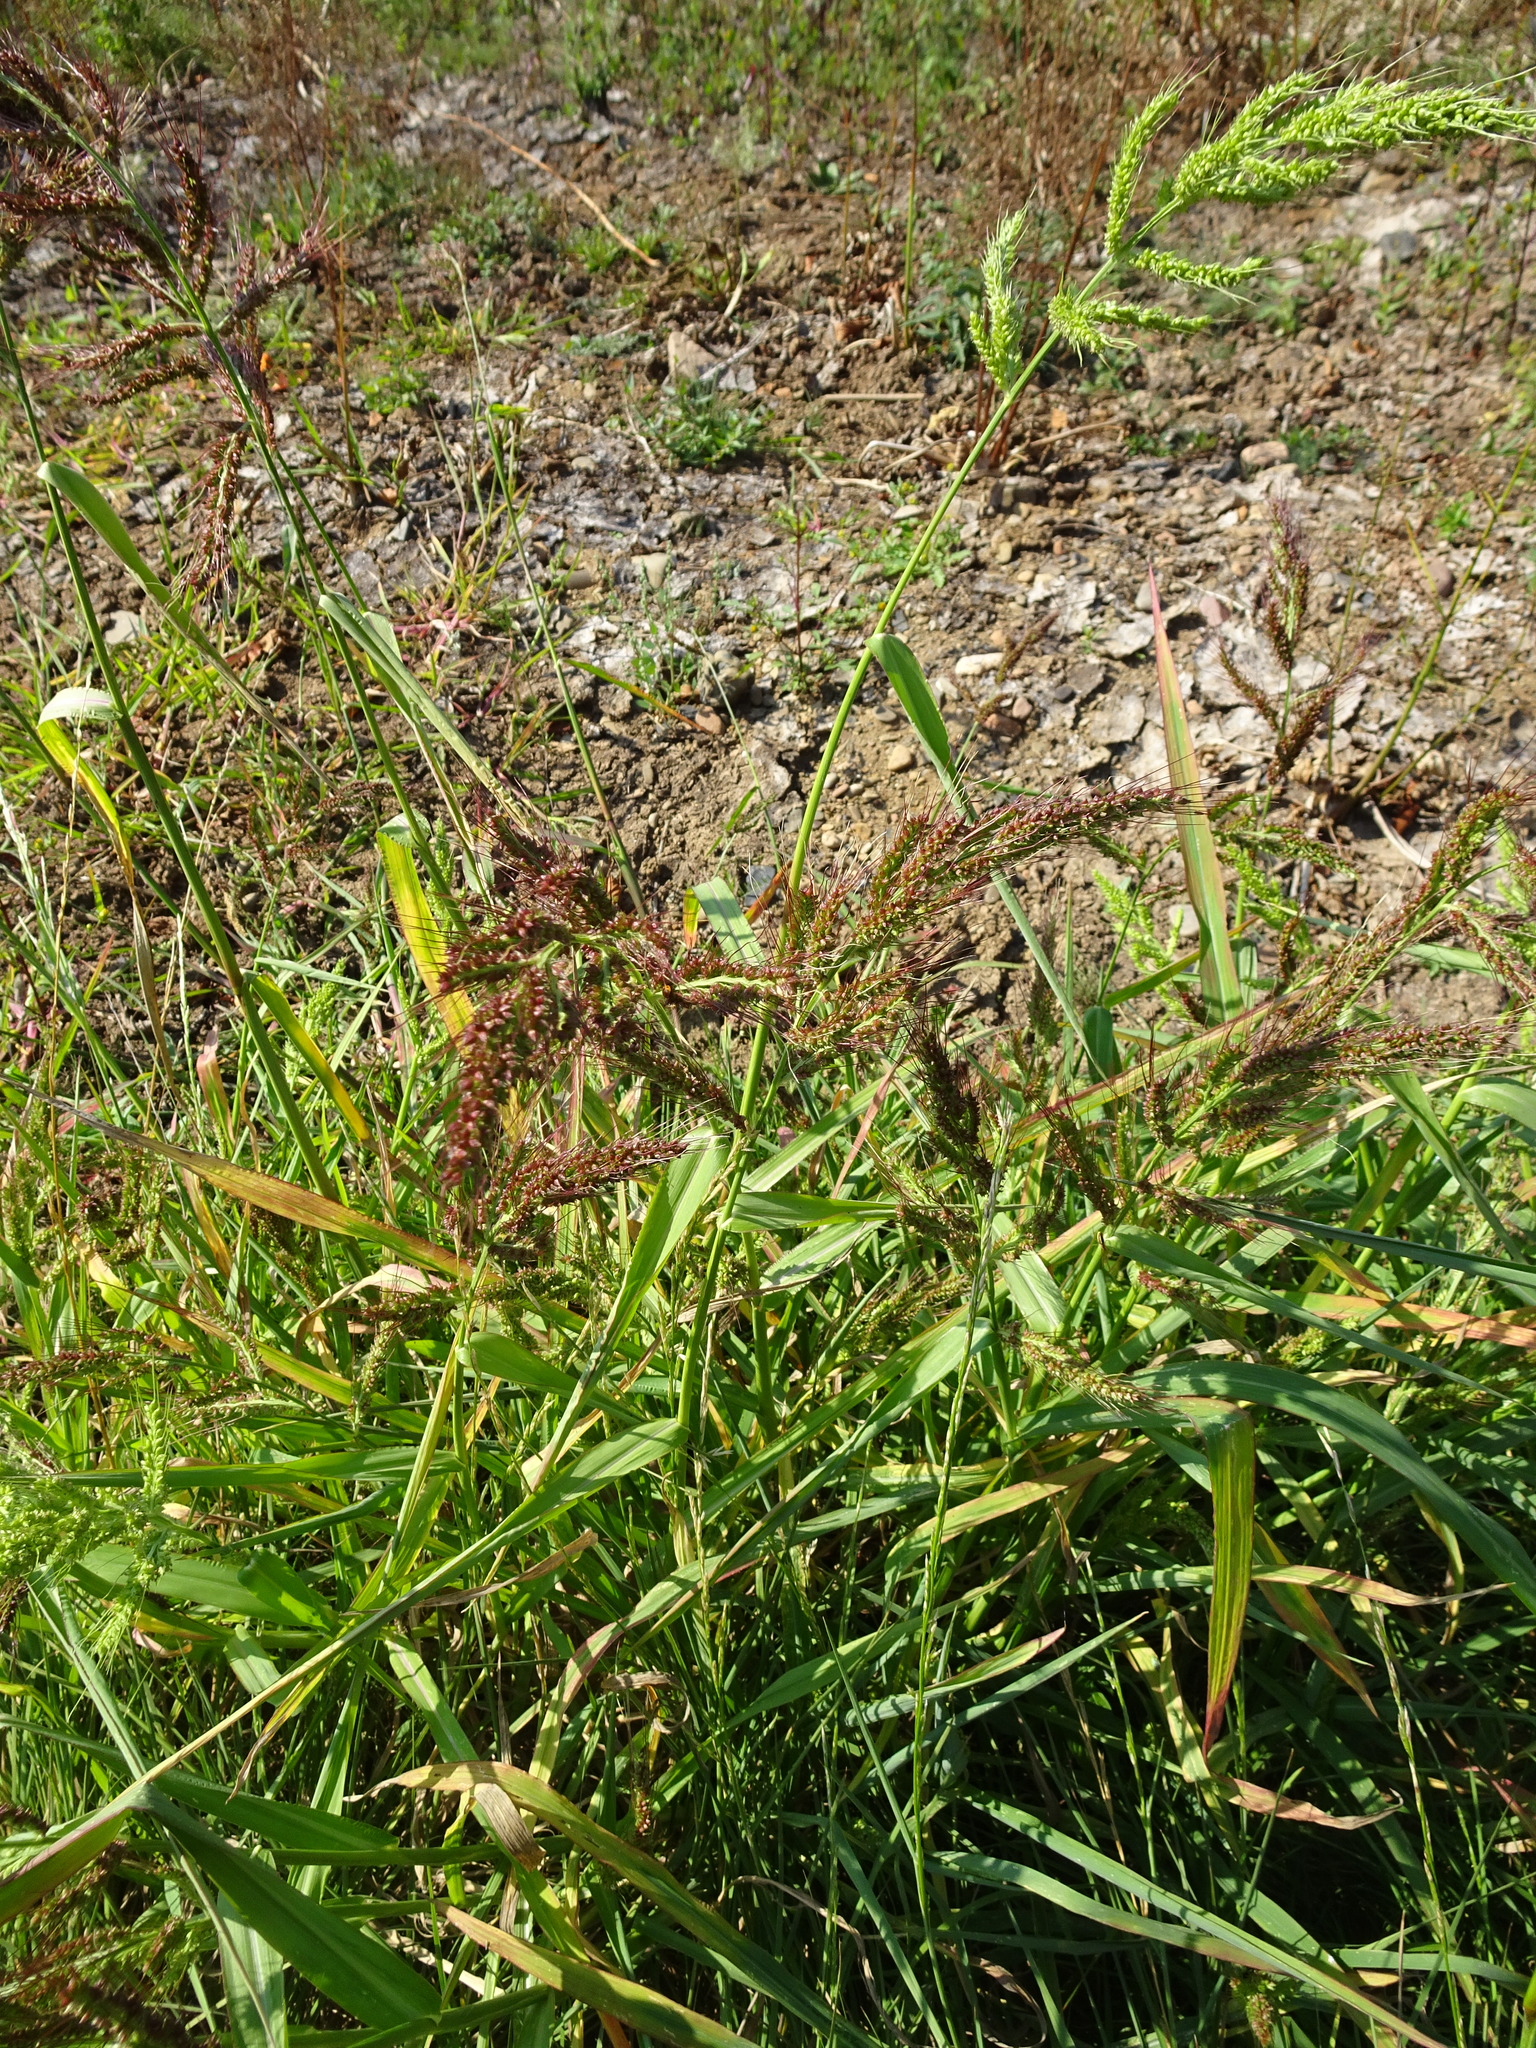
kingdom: Plantae
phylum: Tracheophyta
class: Liliopsida
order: Poales
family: Poaceae
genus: Echinochloa
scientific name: Echinochloa crus-galli
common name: Cockspur
